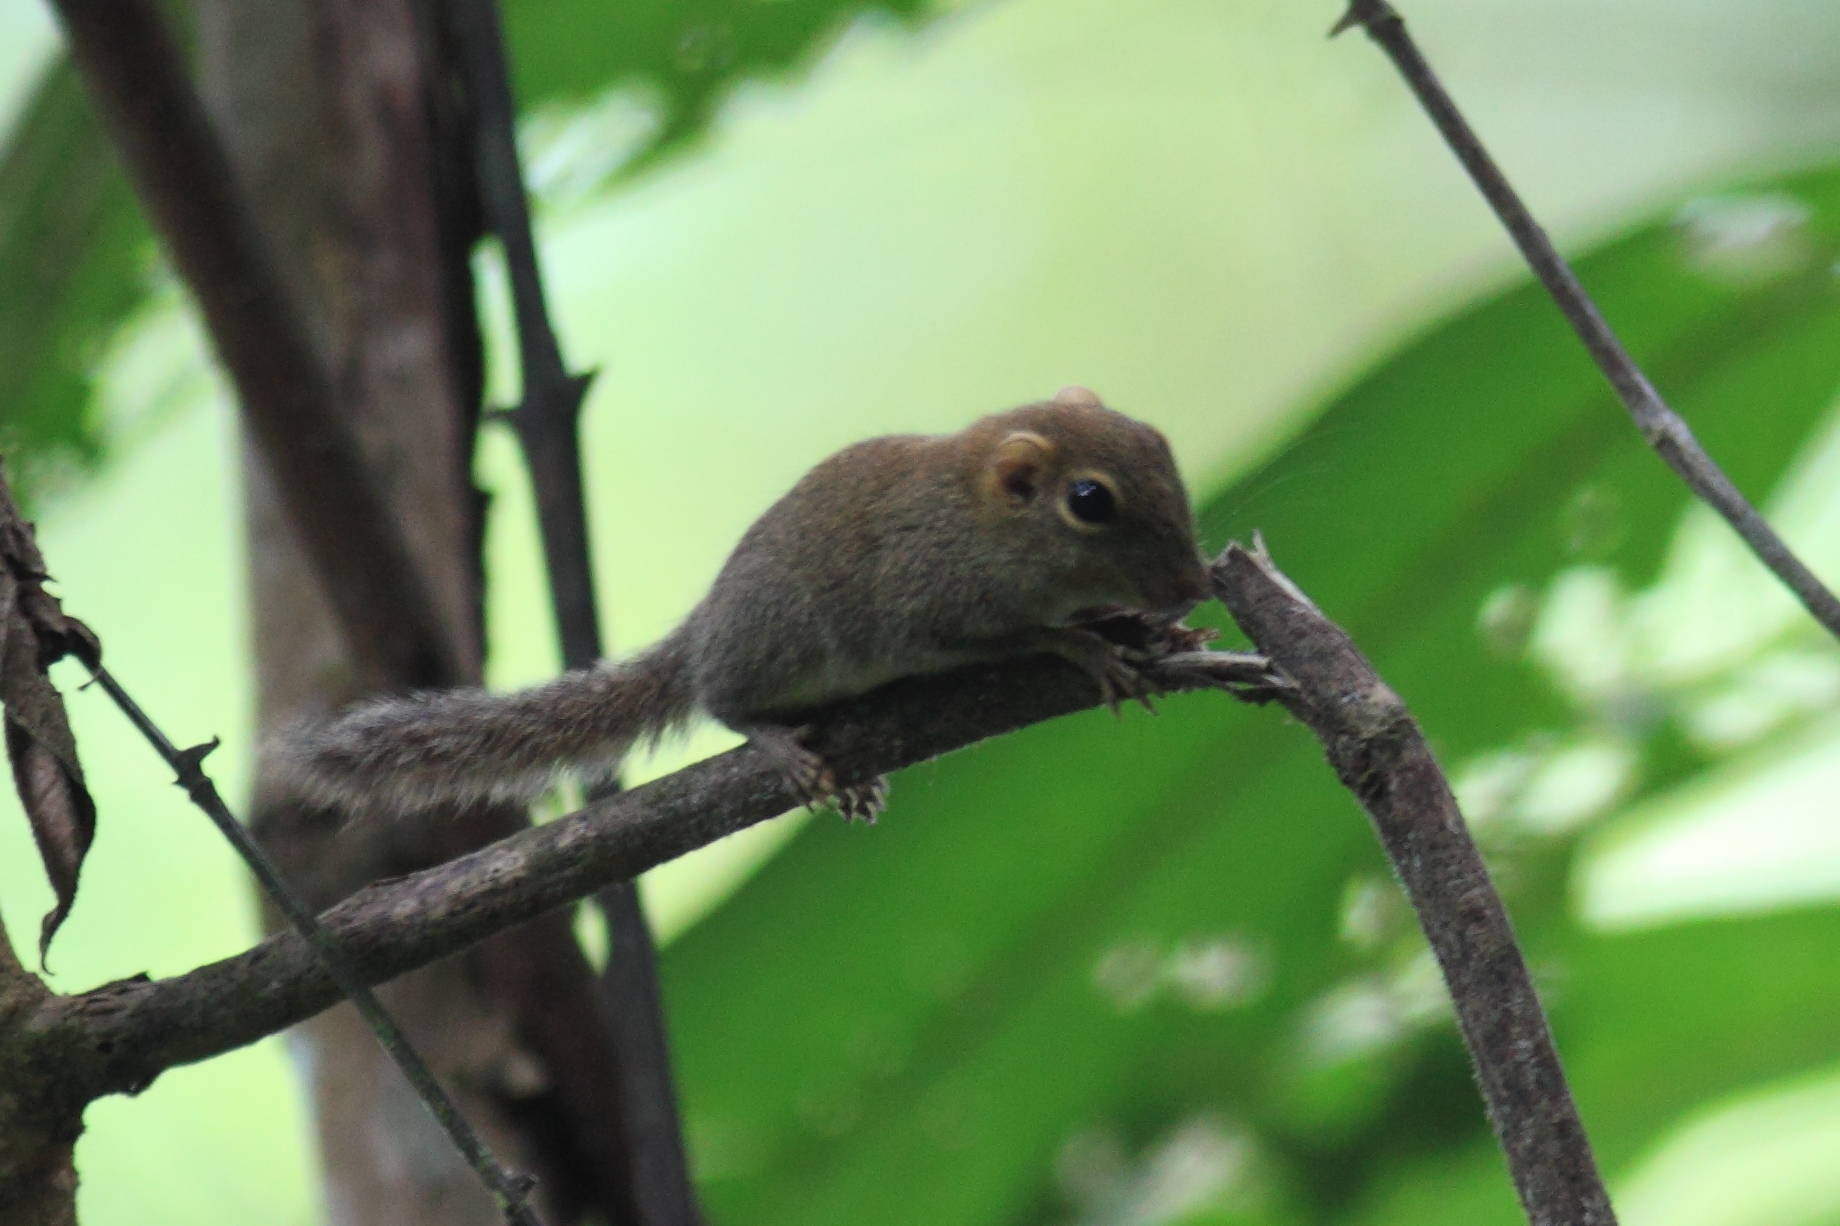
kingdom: Animalia
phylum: Chordata
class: Mammalia
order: Rodentia
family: Sciuridae
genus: Exilisciurus
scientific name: Exilisciurus exilis
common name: Least pygmy squirrel
